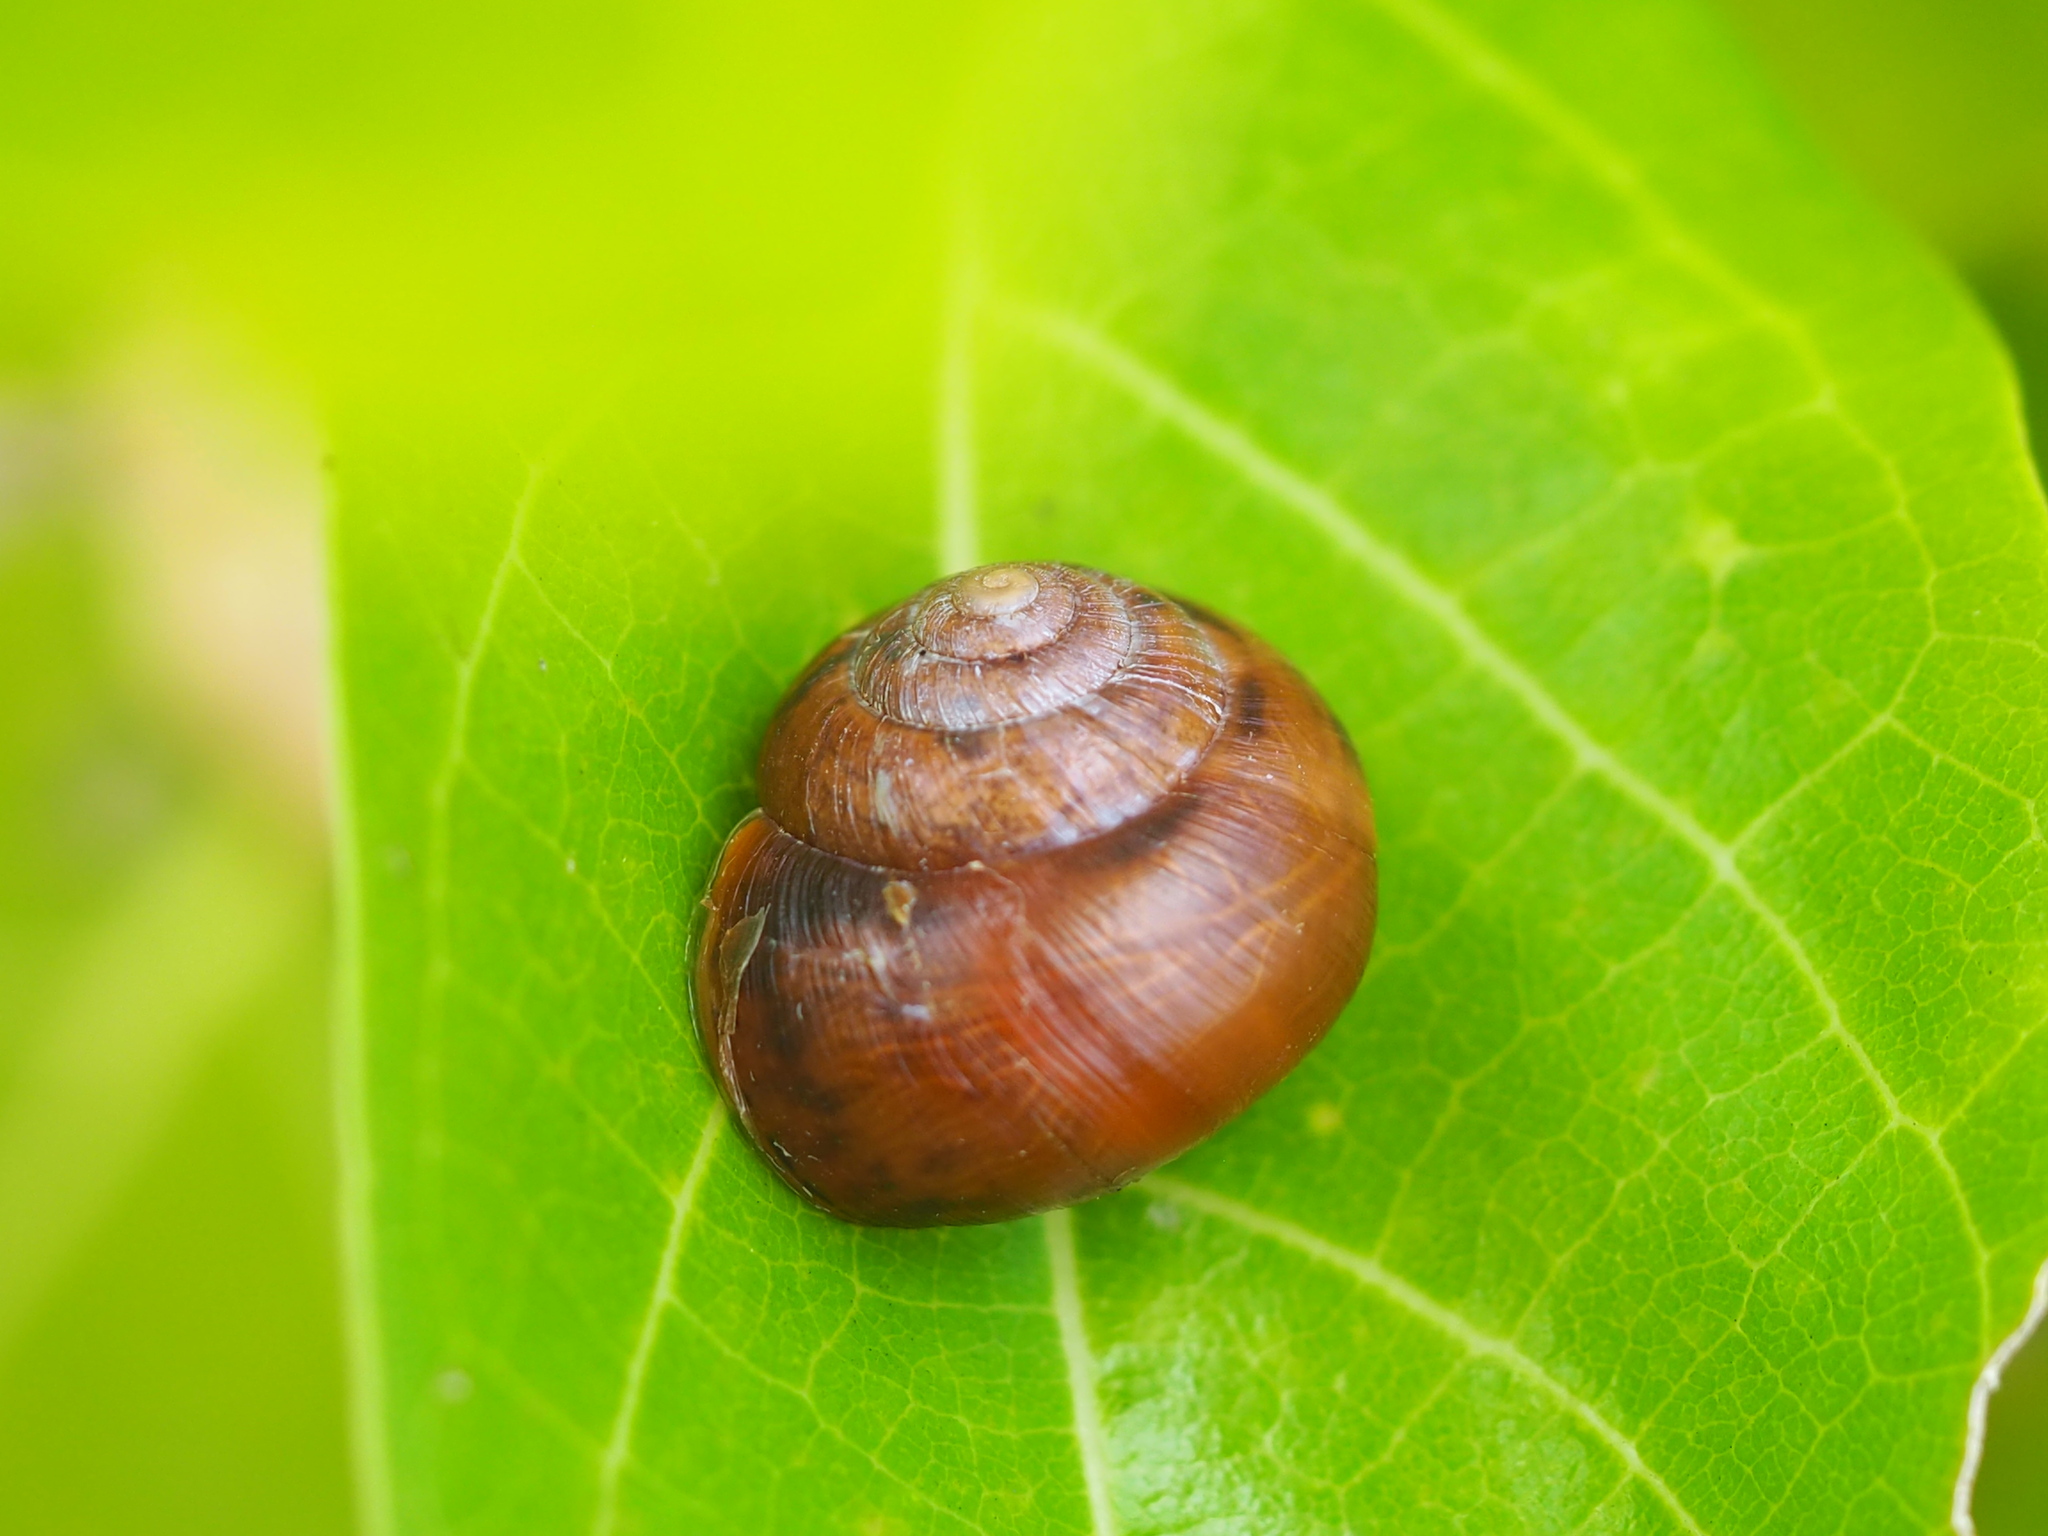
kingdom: Animalia
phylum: Mollusca
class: Gastropoda
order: Stylommatophora
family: Camaenidae
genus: Acusta
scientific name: Acusta toyenmongaiensis
